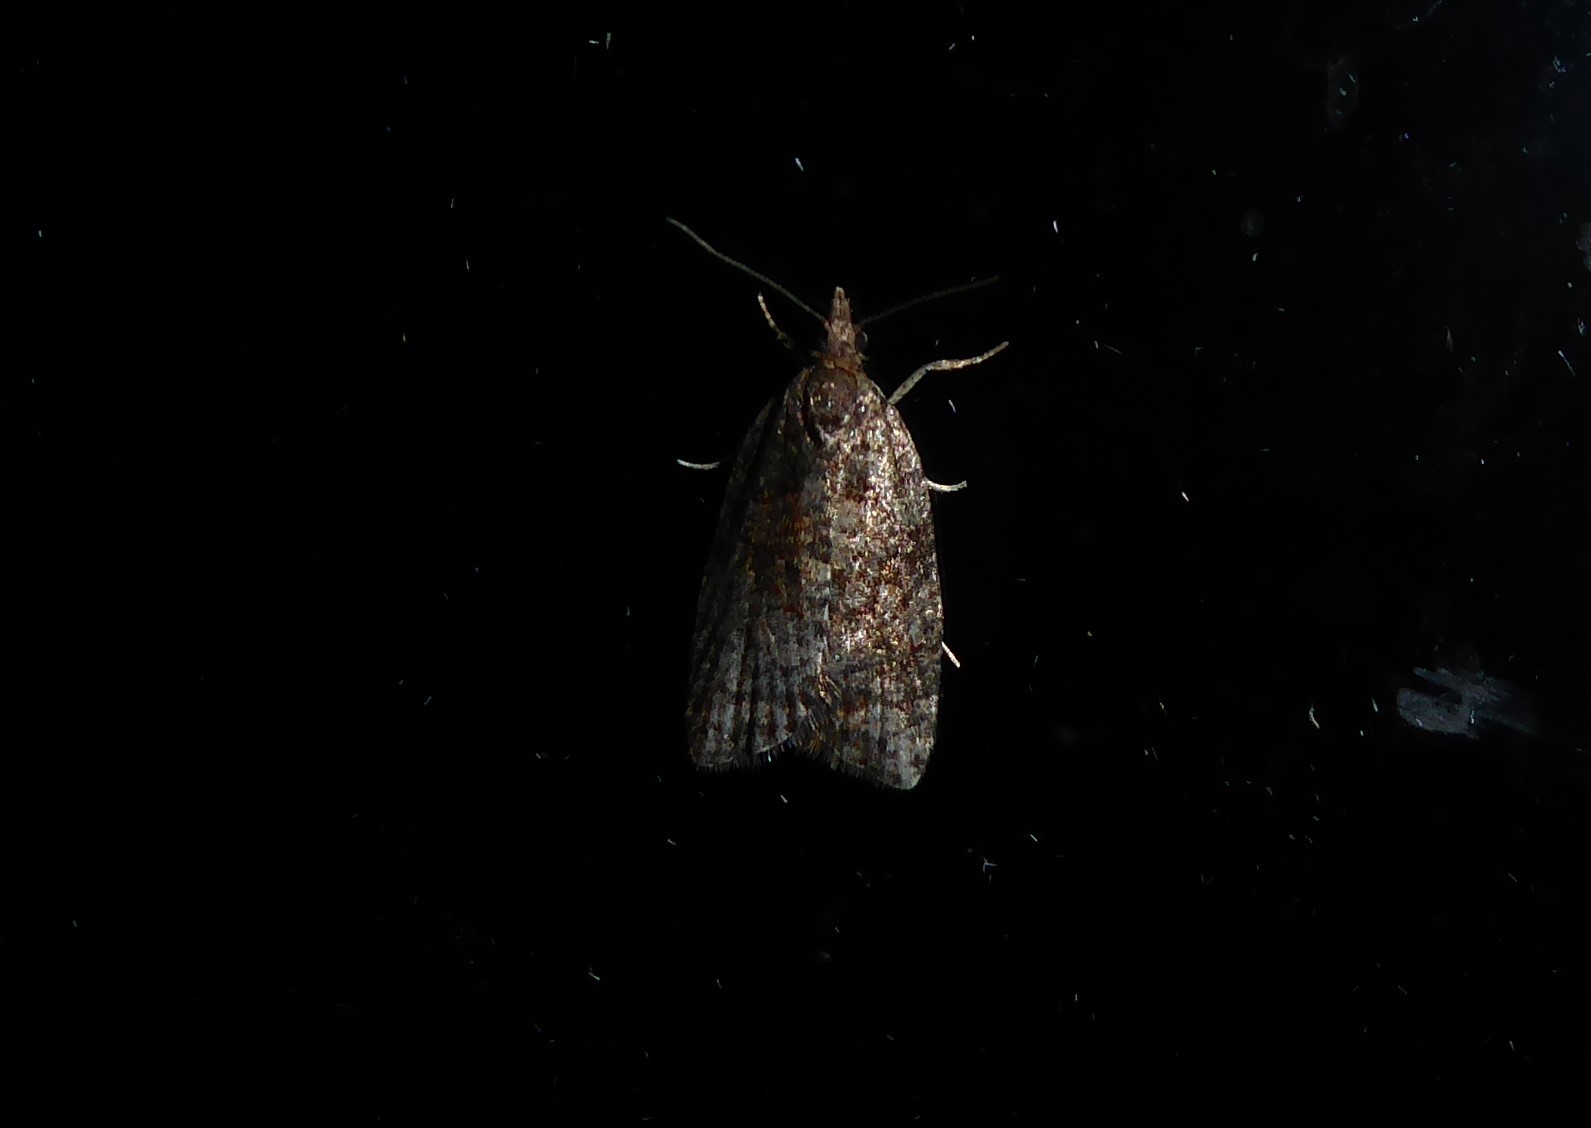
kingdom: Animalia
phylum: Arthropoda
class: Insecta
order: Lepidoptera
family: Tortricidae
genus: Capua
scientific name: Capua intractana
